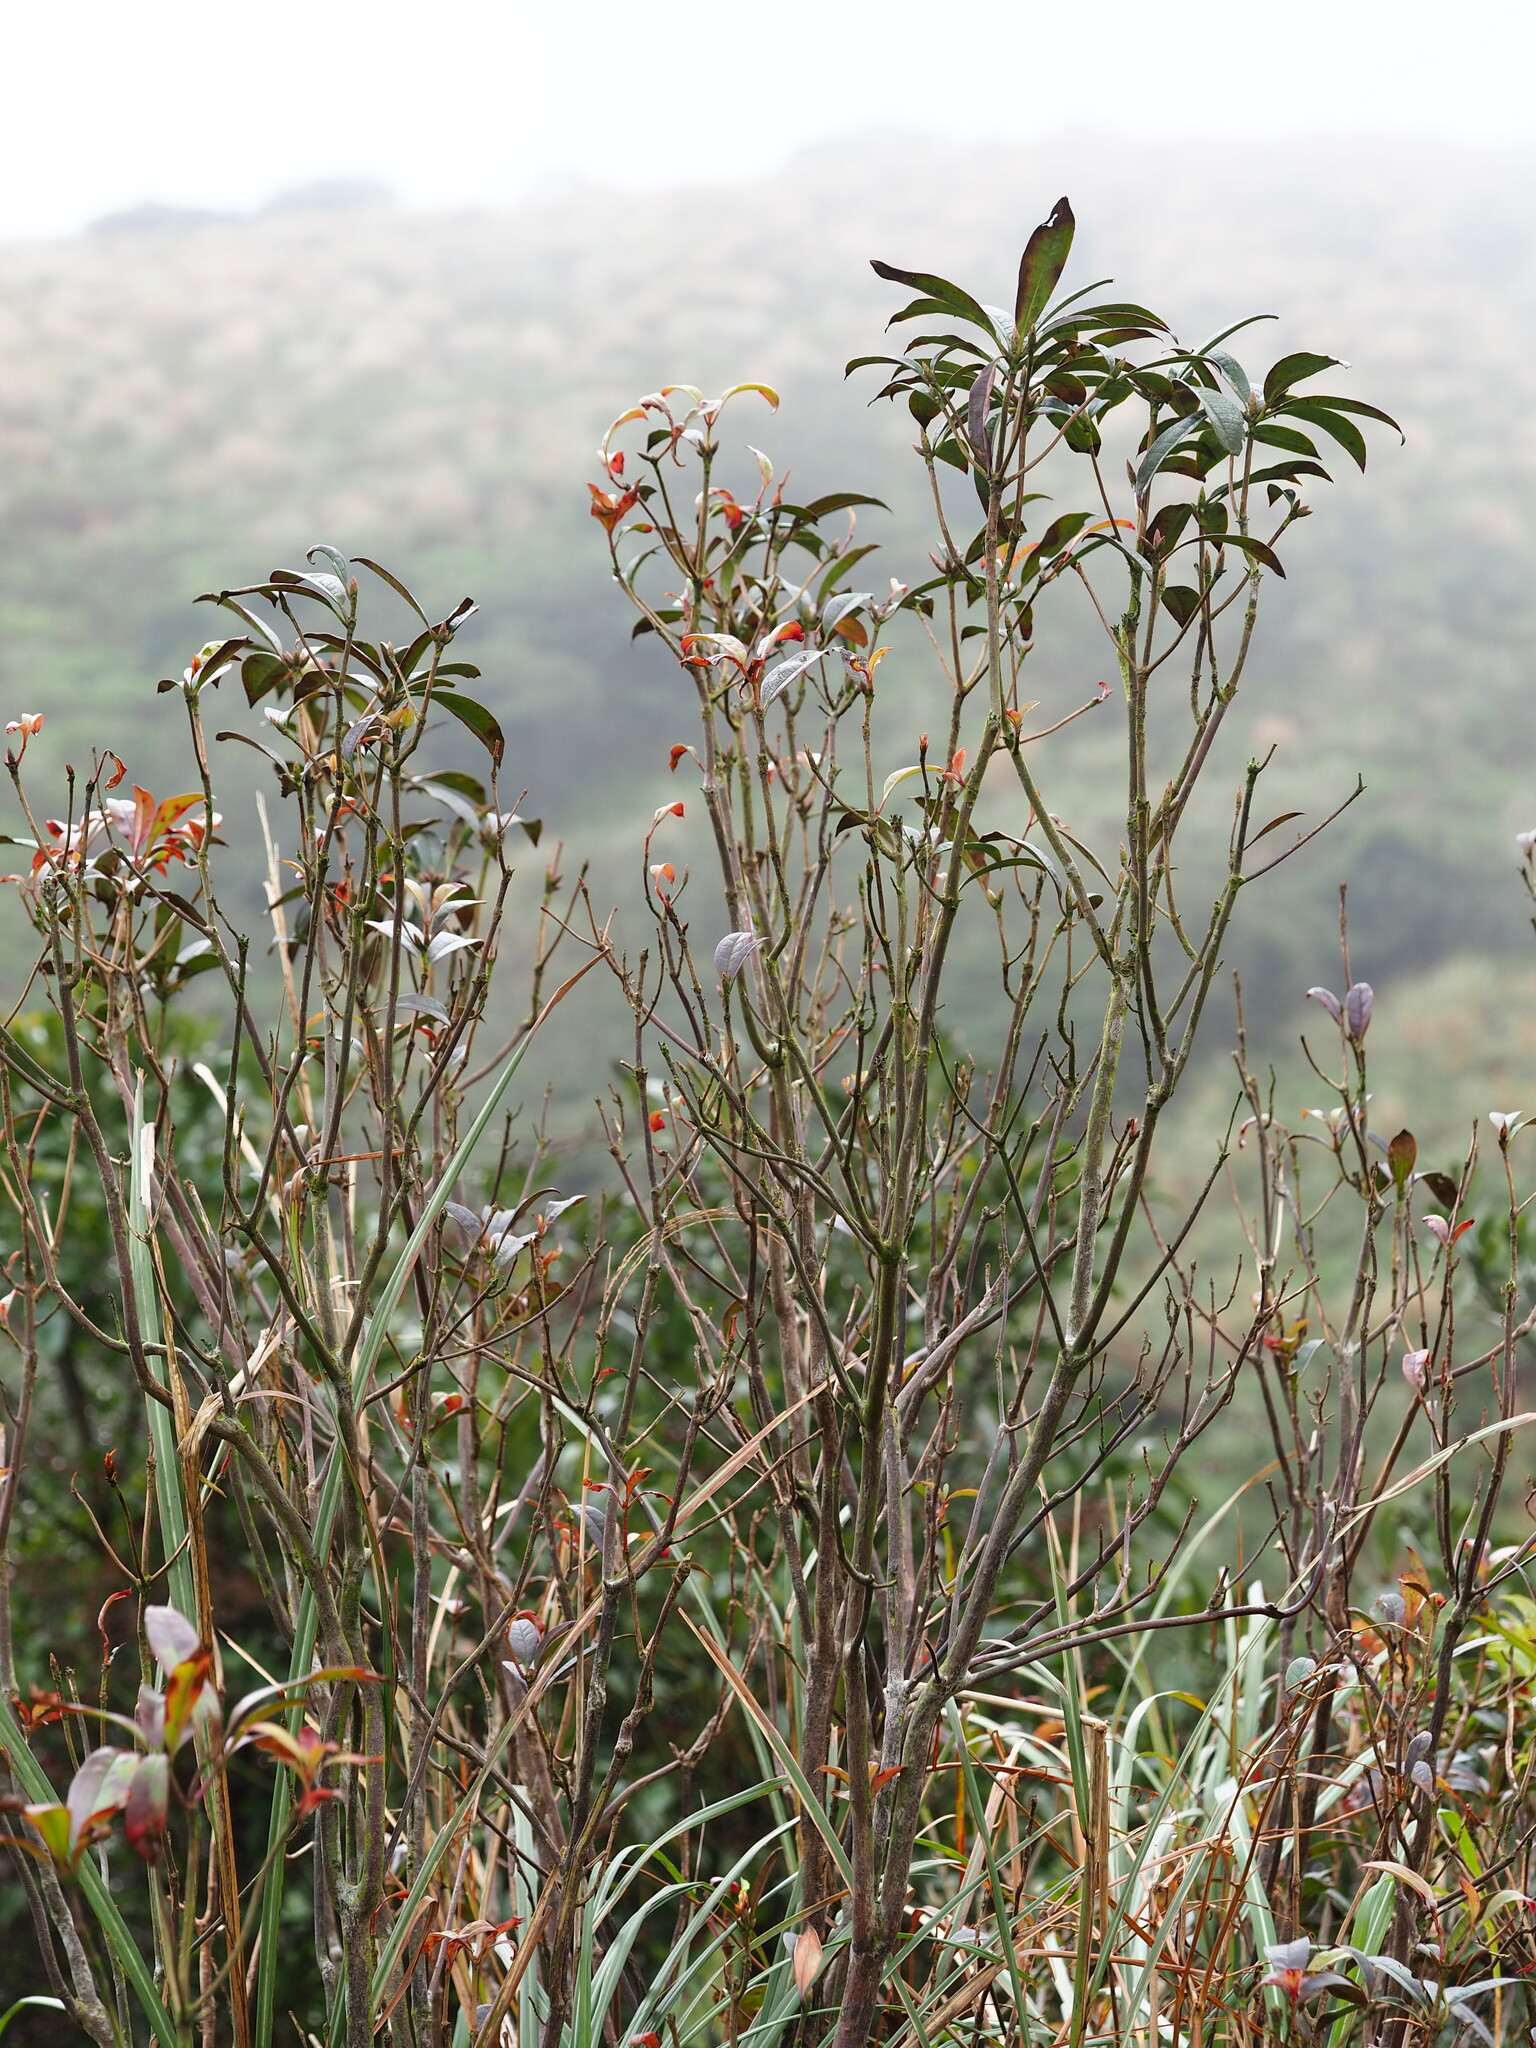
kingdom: Plantae
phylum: Tracheophyta
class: Magnoliopsida
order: Ericales
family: Ericaceae
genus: Rhododendron
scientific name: Rhododendron latoucheae
